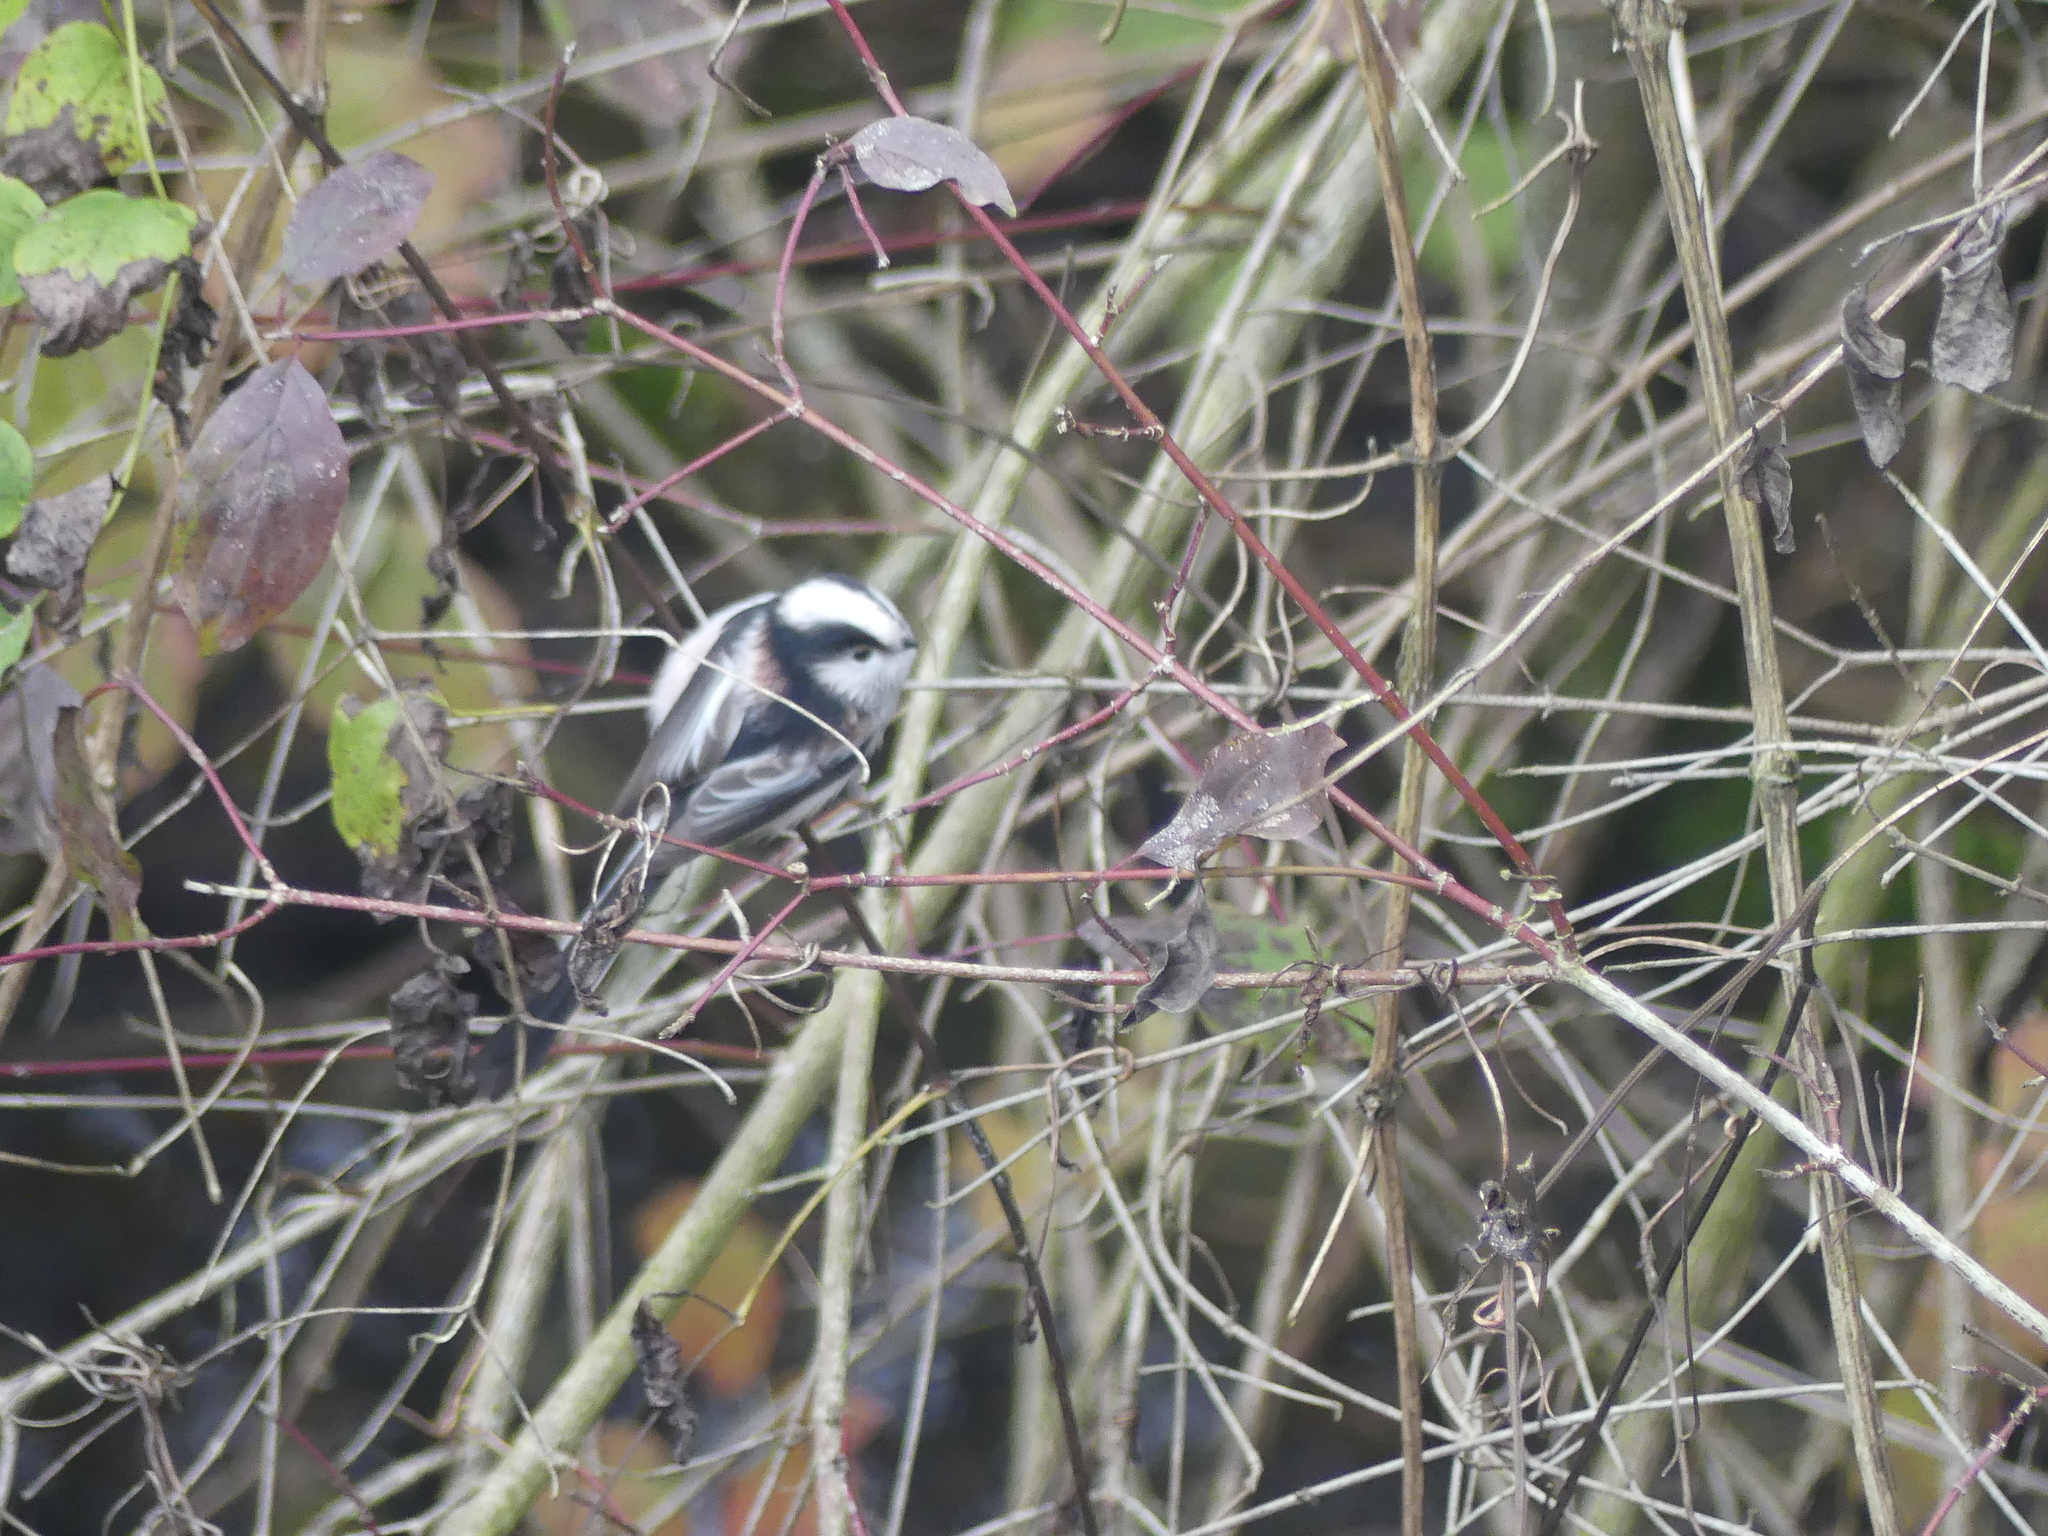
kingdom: Animalia
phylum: Chordata
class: Aves
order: Passeriformes
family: Aegithalidae
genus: Aegithalos
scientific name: Aegithalos caudatus
